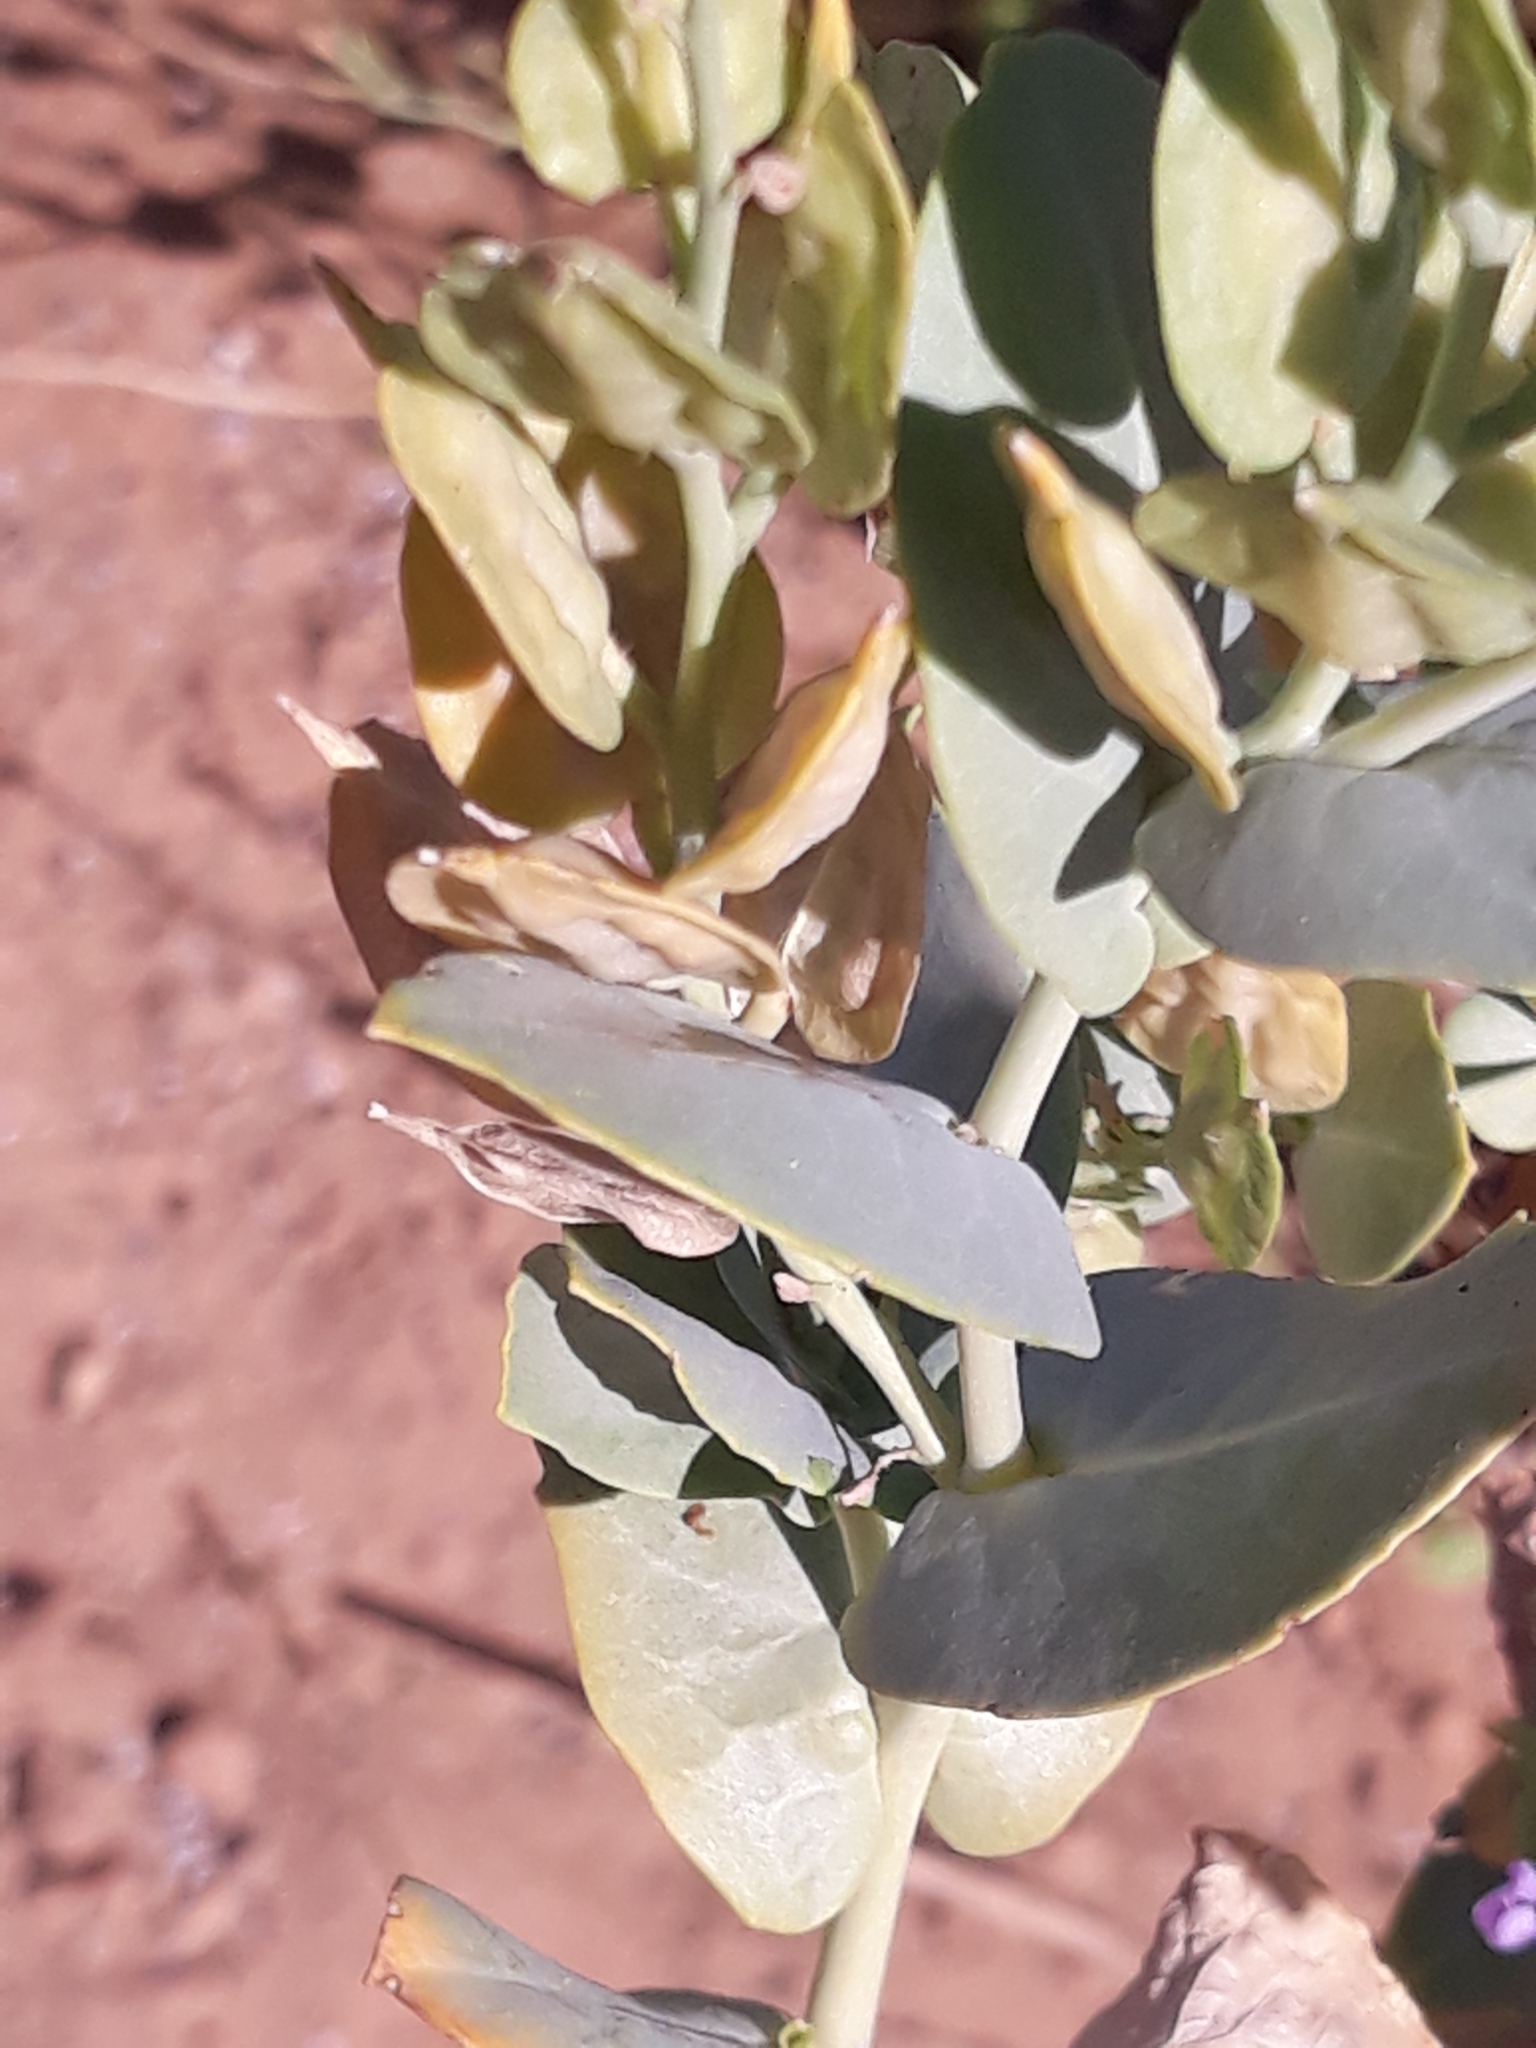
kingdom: Plantae
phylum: Tracheophyta
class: Magnoliopsida
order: Brassicales
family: Brassicaceae
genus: Schouwia
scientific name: Schouwia purpurea
